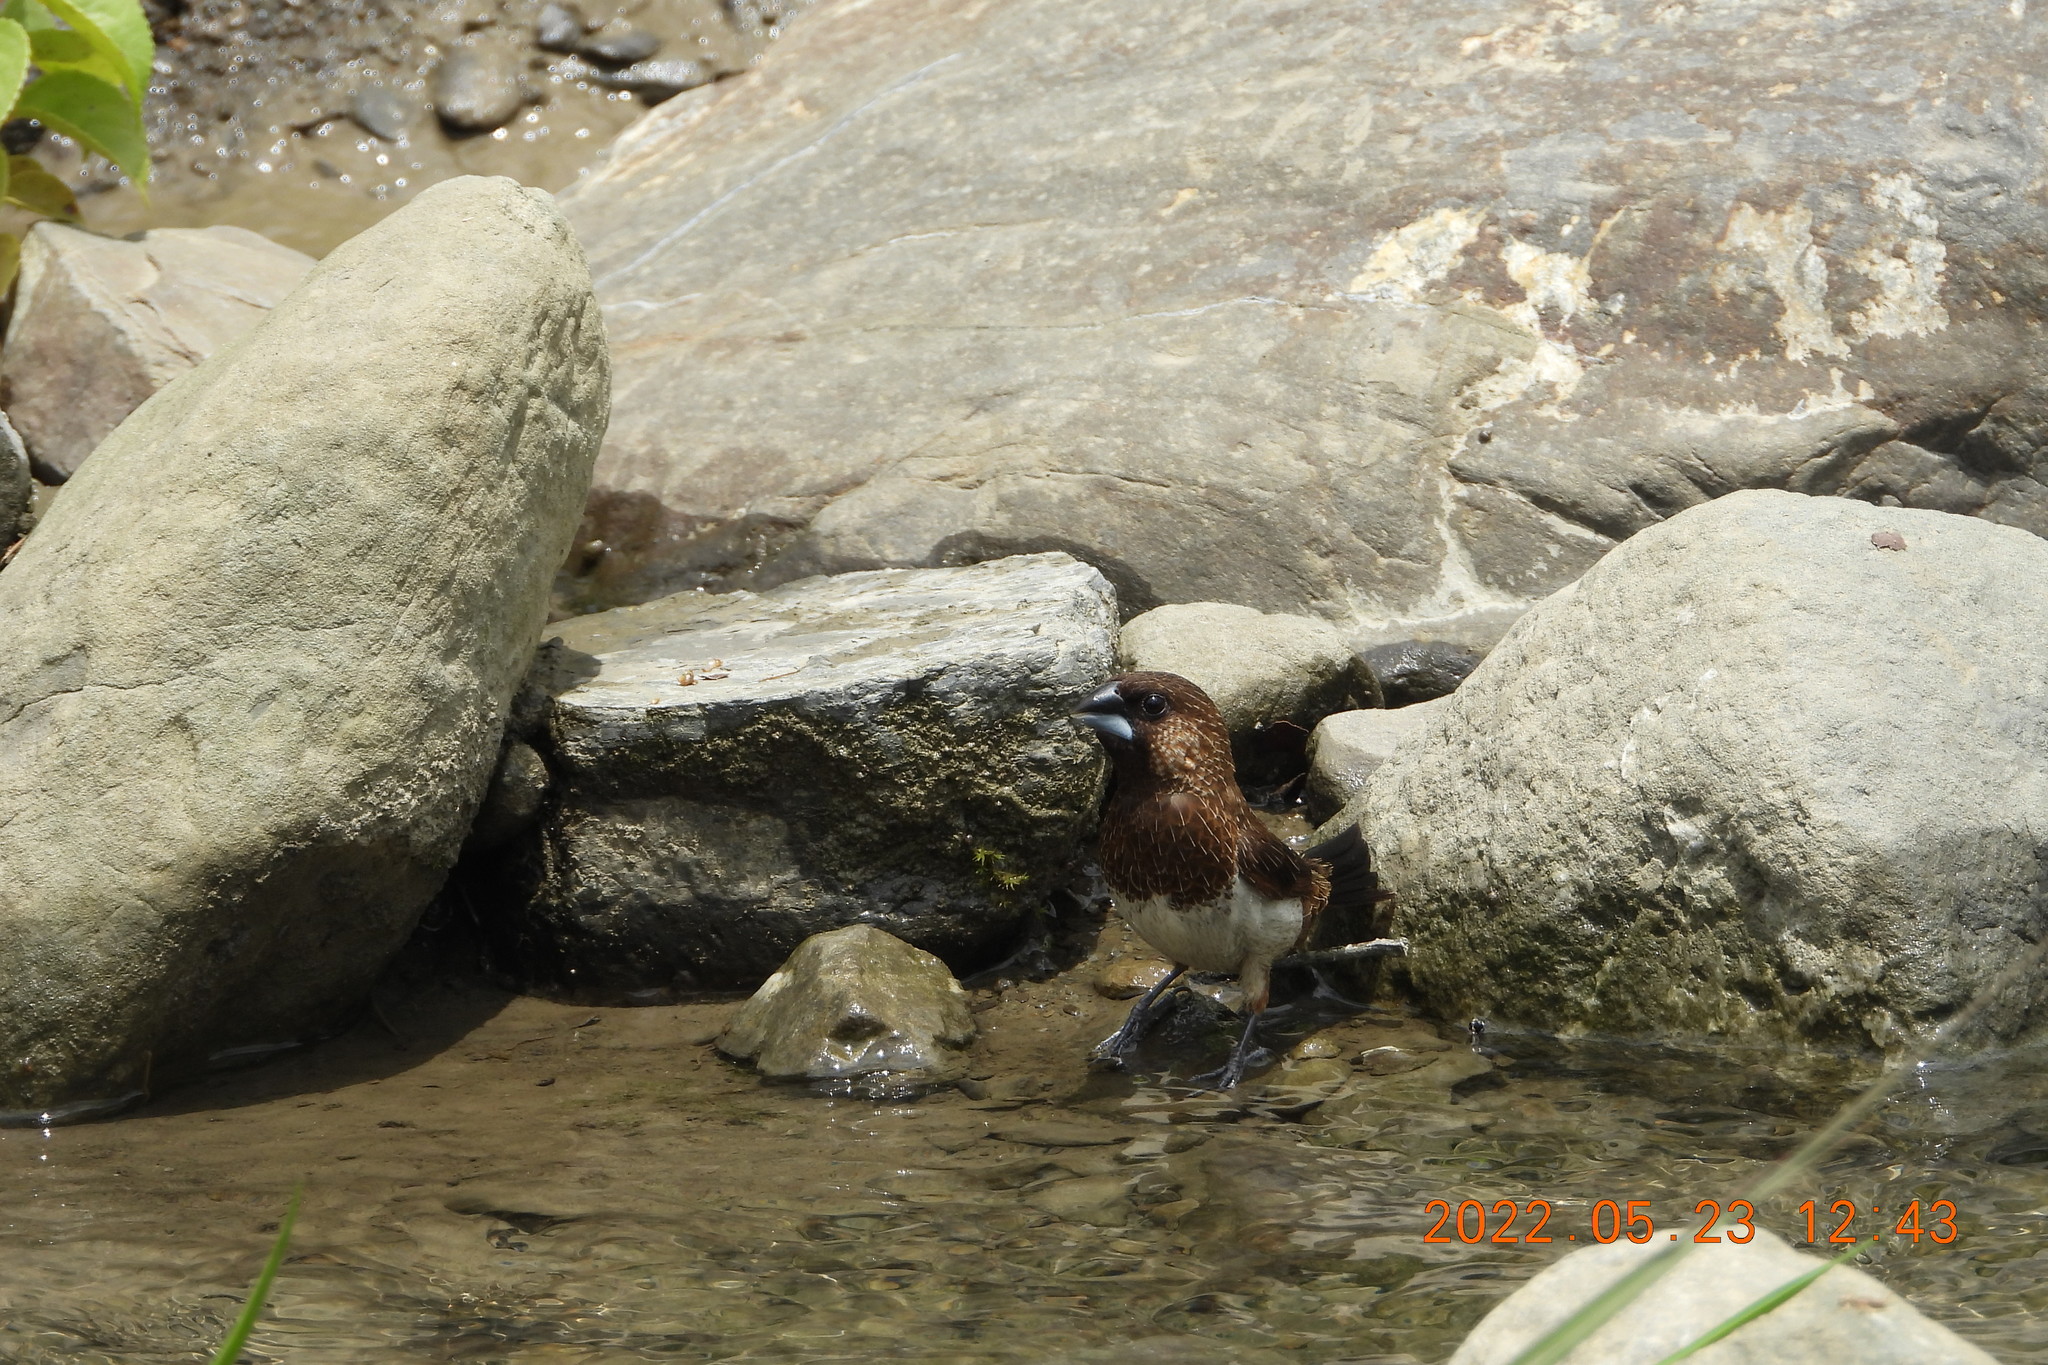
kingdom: Animalia
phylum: Chordata
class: Aves
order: Passeriformes
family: Estrildidae
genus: Lonchura
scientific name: Lonchura striata
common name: White-rumped munia
